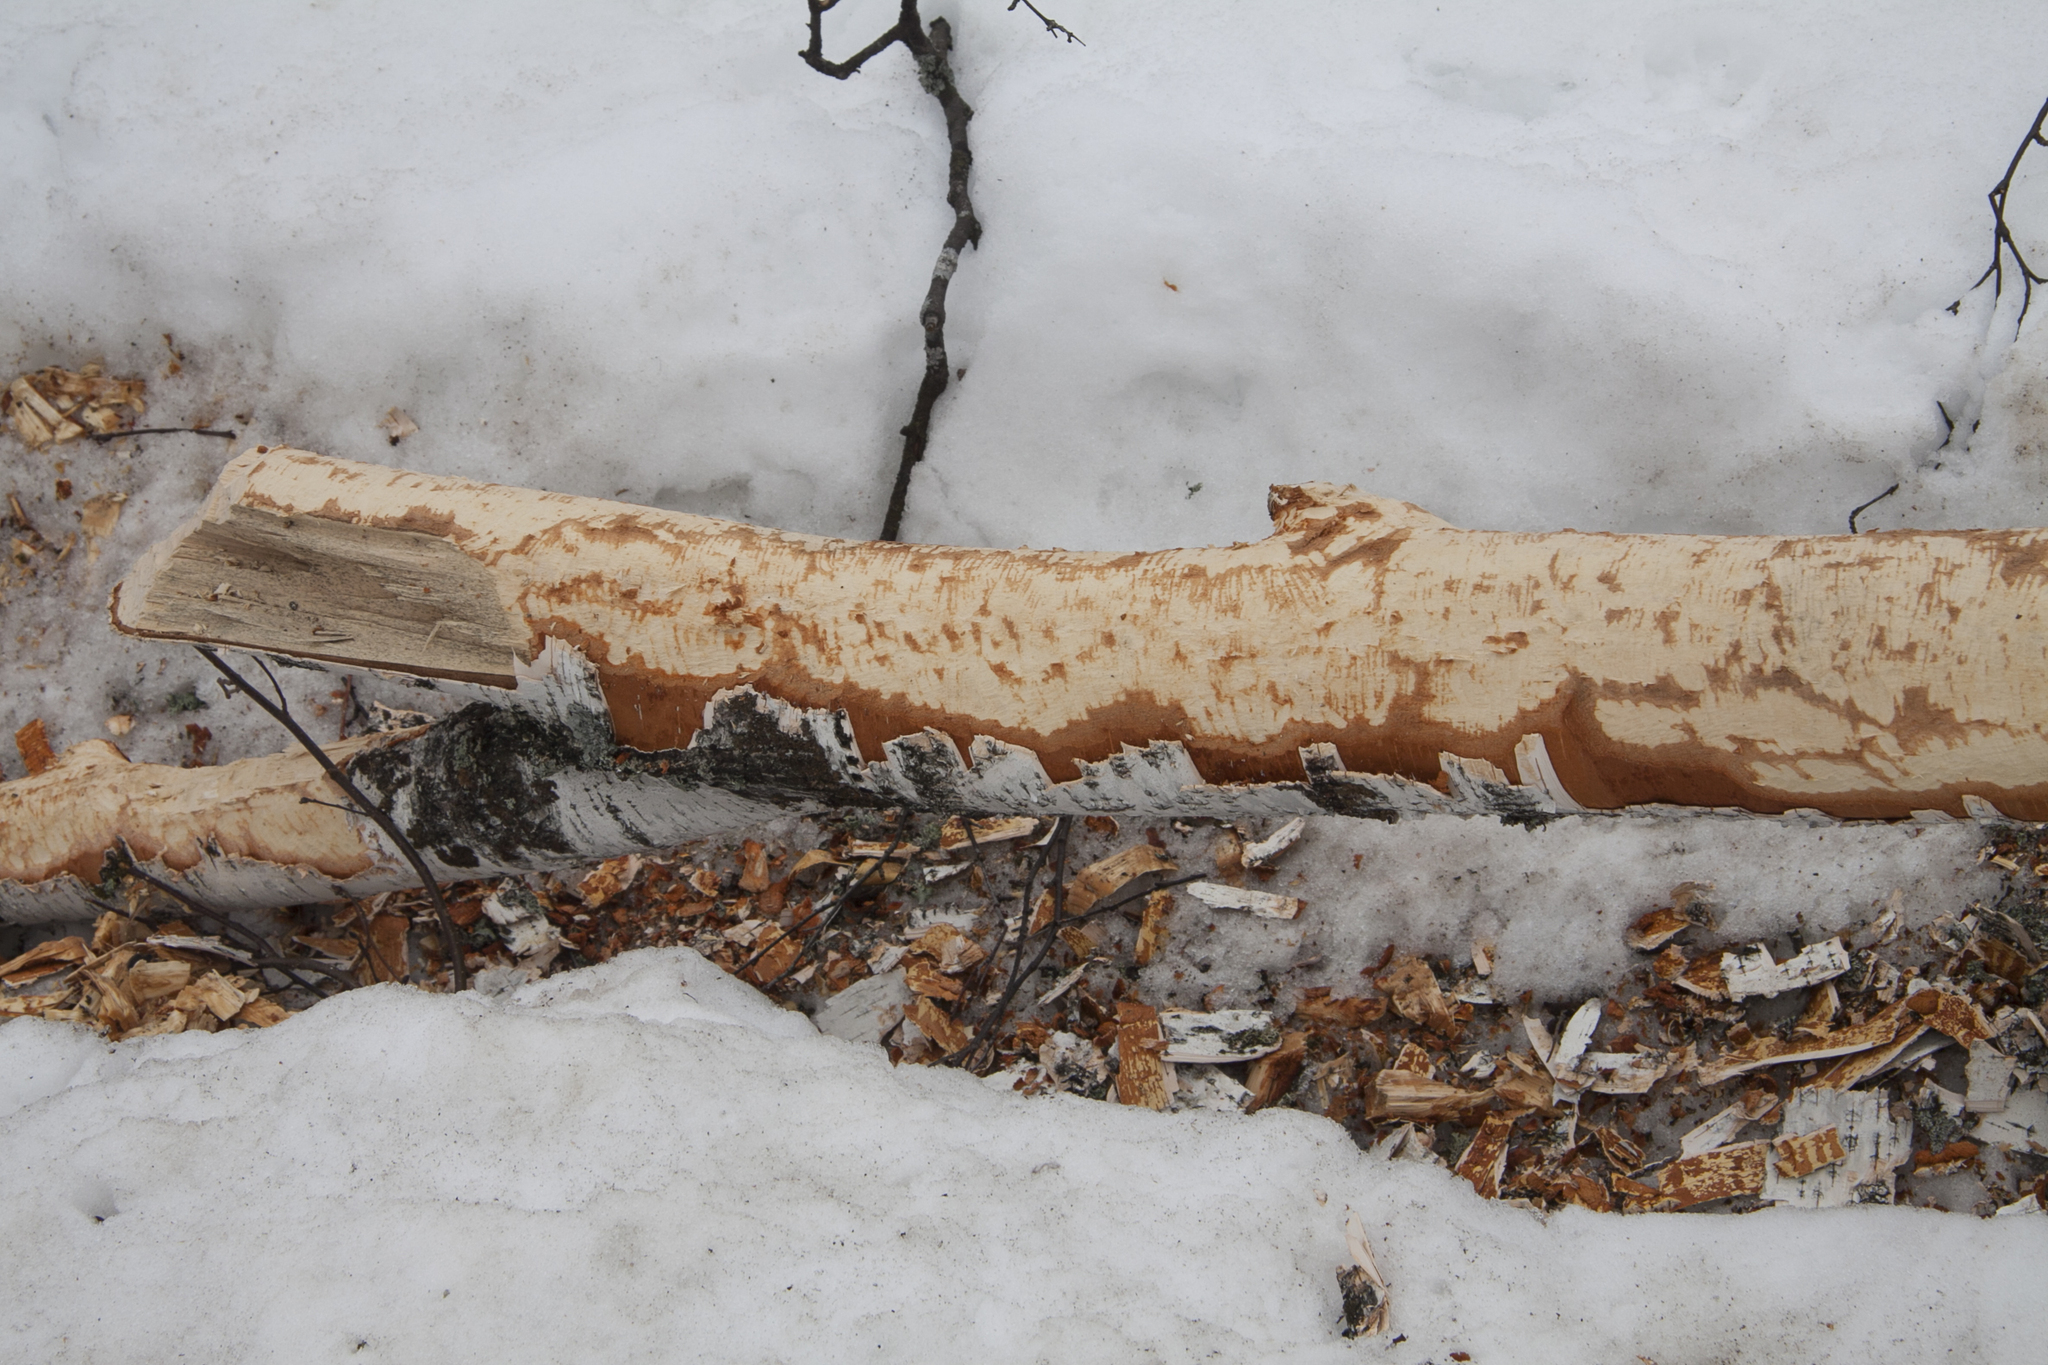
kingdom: Animalia
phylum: Chordata
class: Mammalia
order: Rodentia
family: Castoridae
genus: Castor
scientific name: Castor fiber
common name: Eurasian beaver
